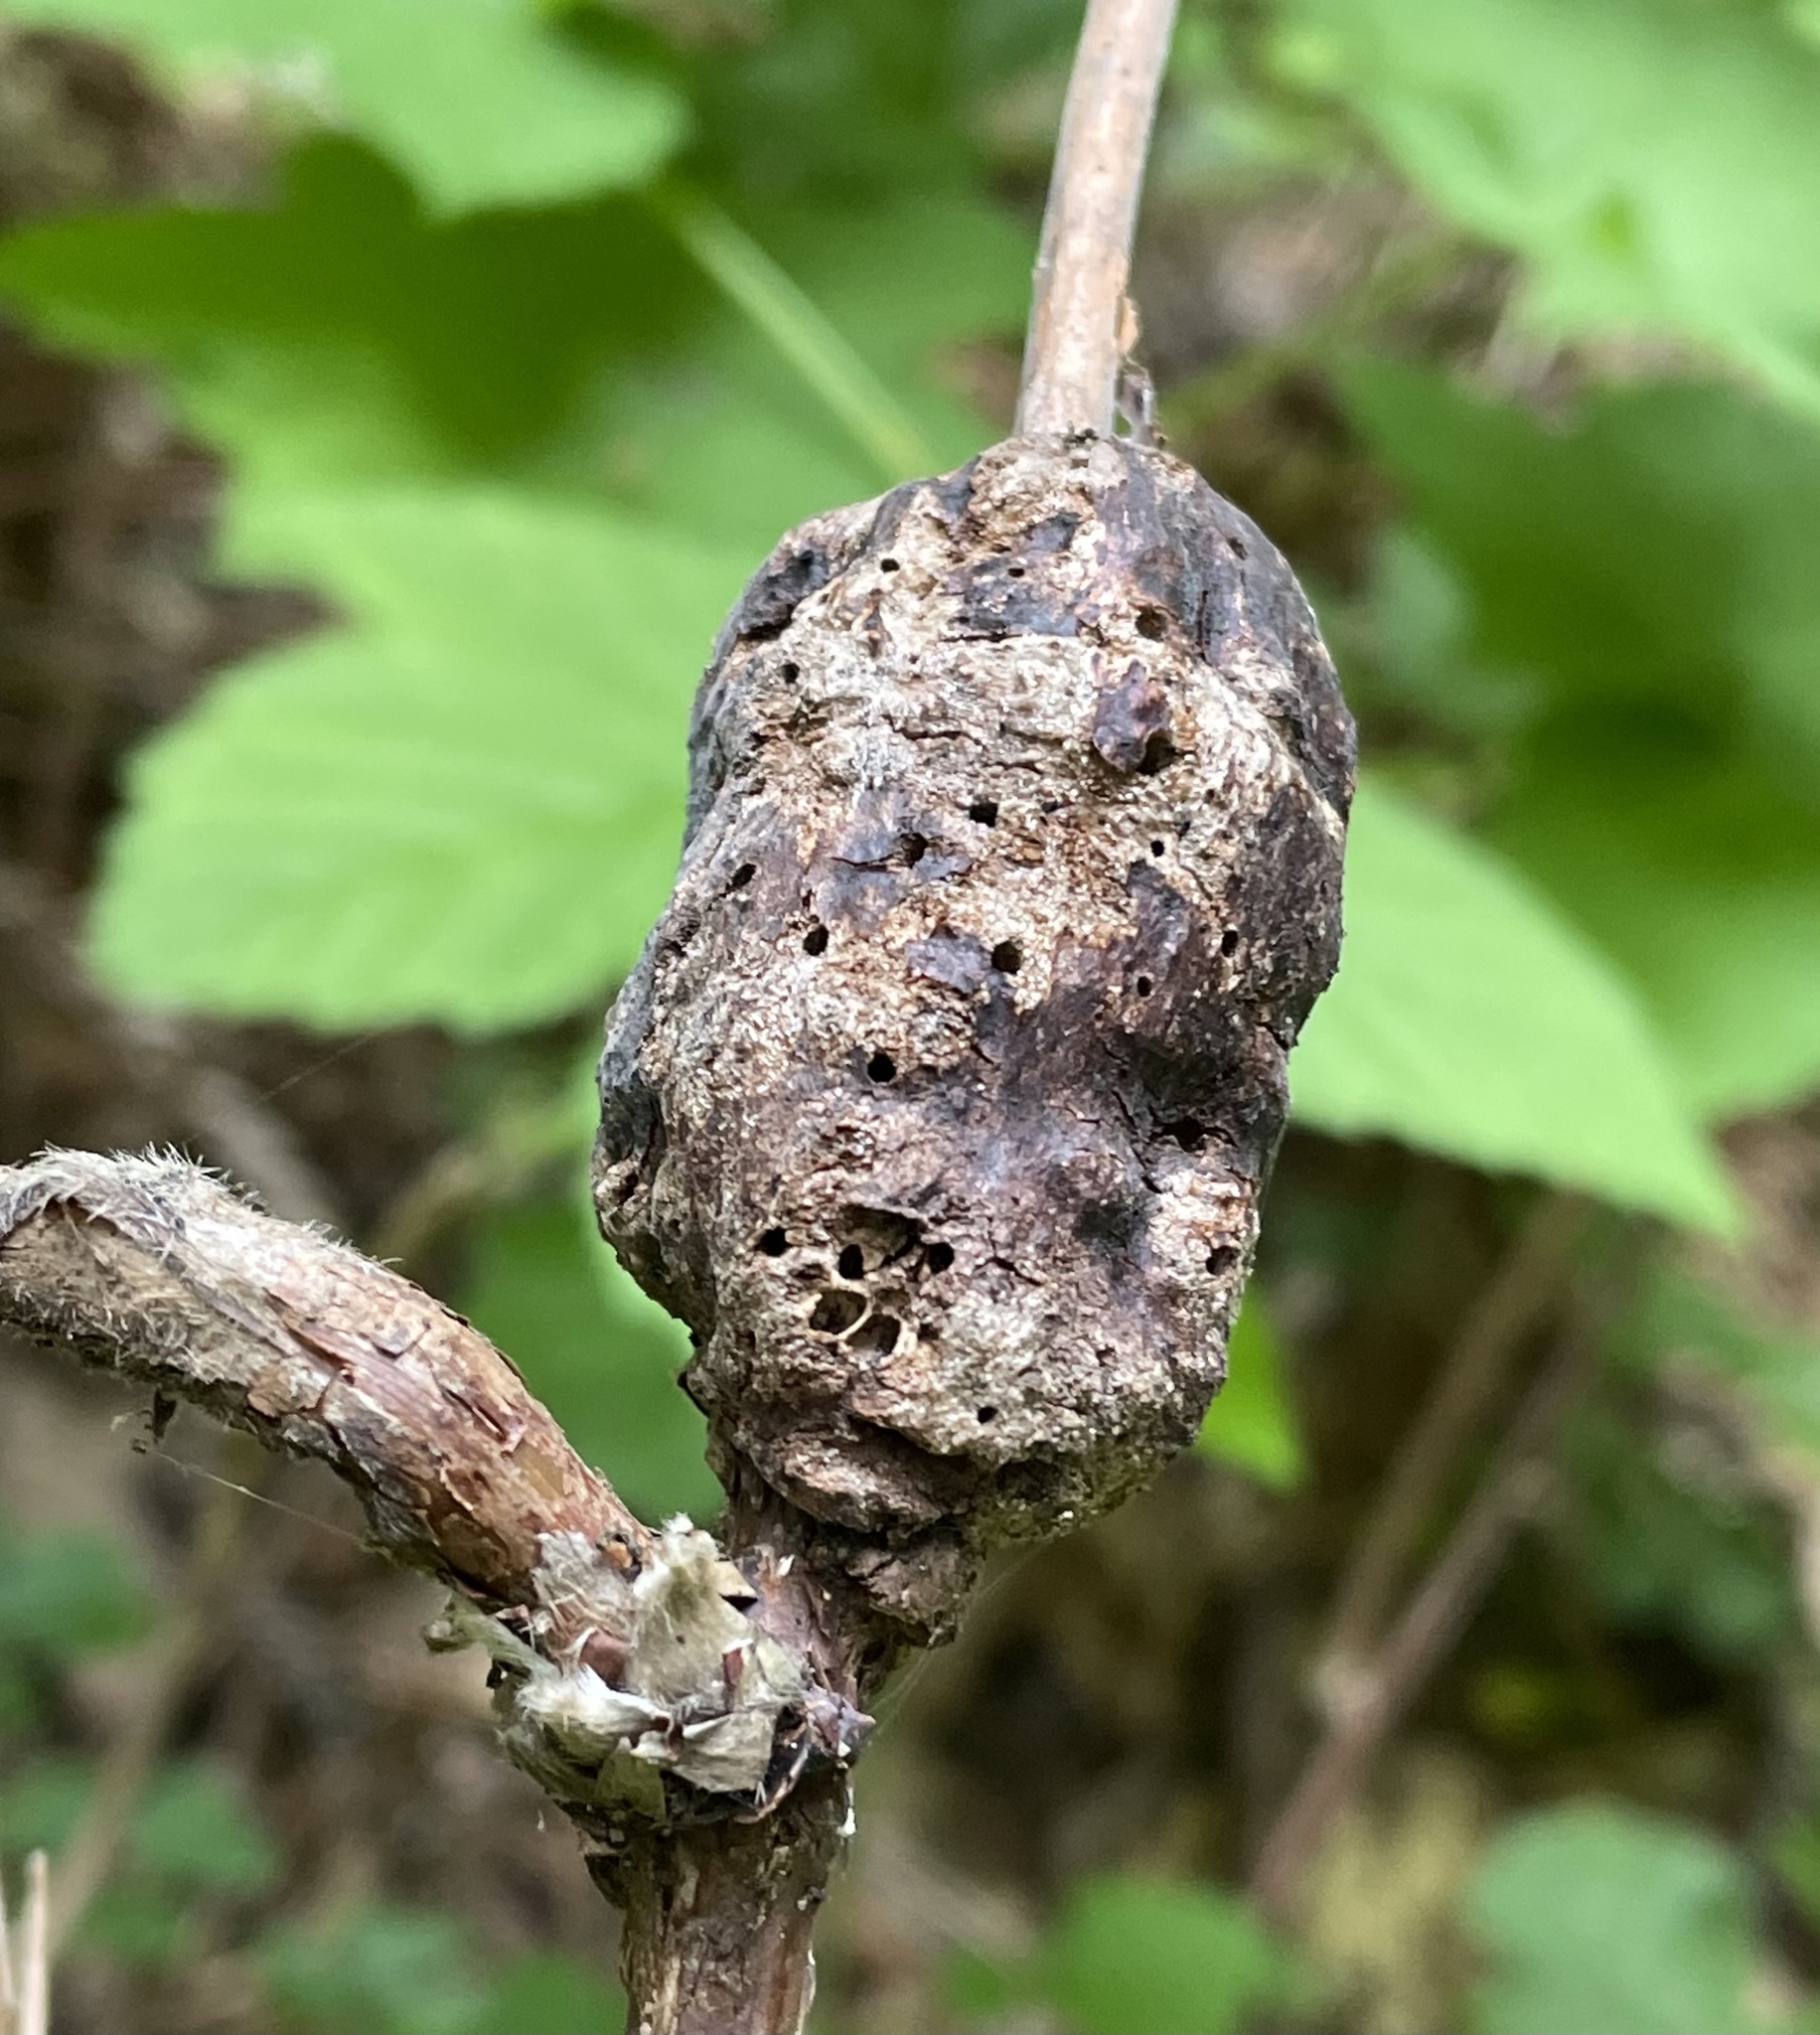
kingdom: Animalia
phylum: Arthropoda
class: Insecta
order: Hymenoptera
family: Cynipidae
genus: Diastrophus
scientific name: Diastrophus
